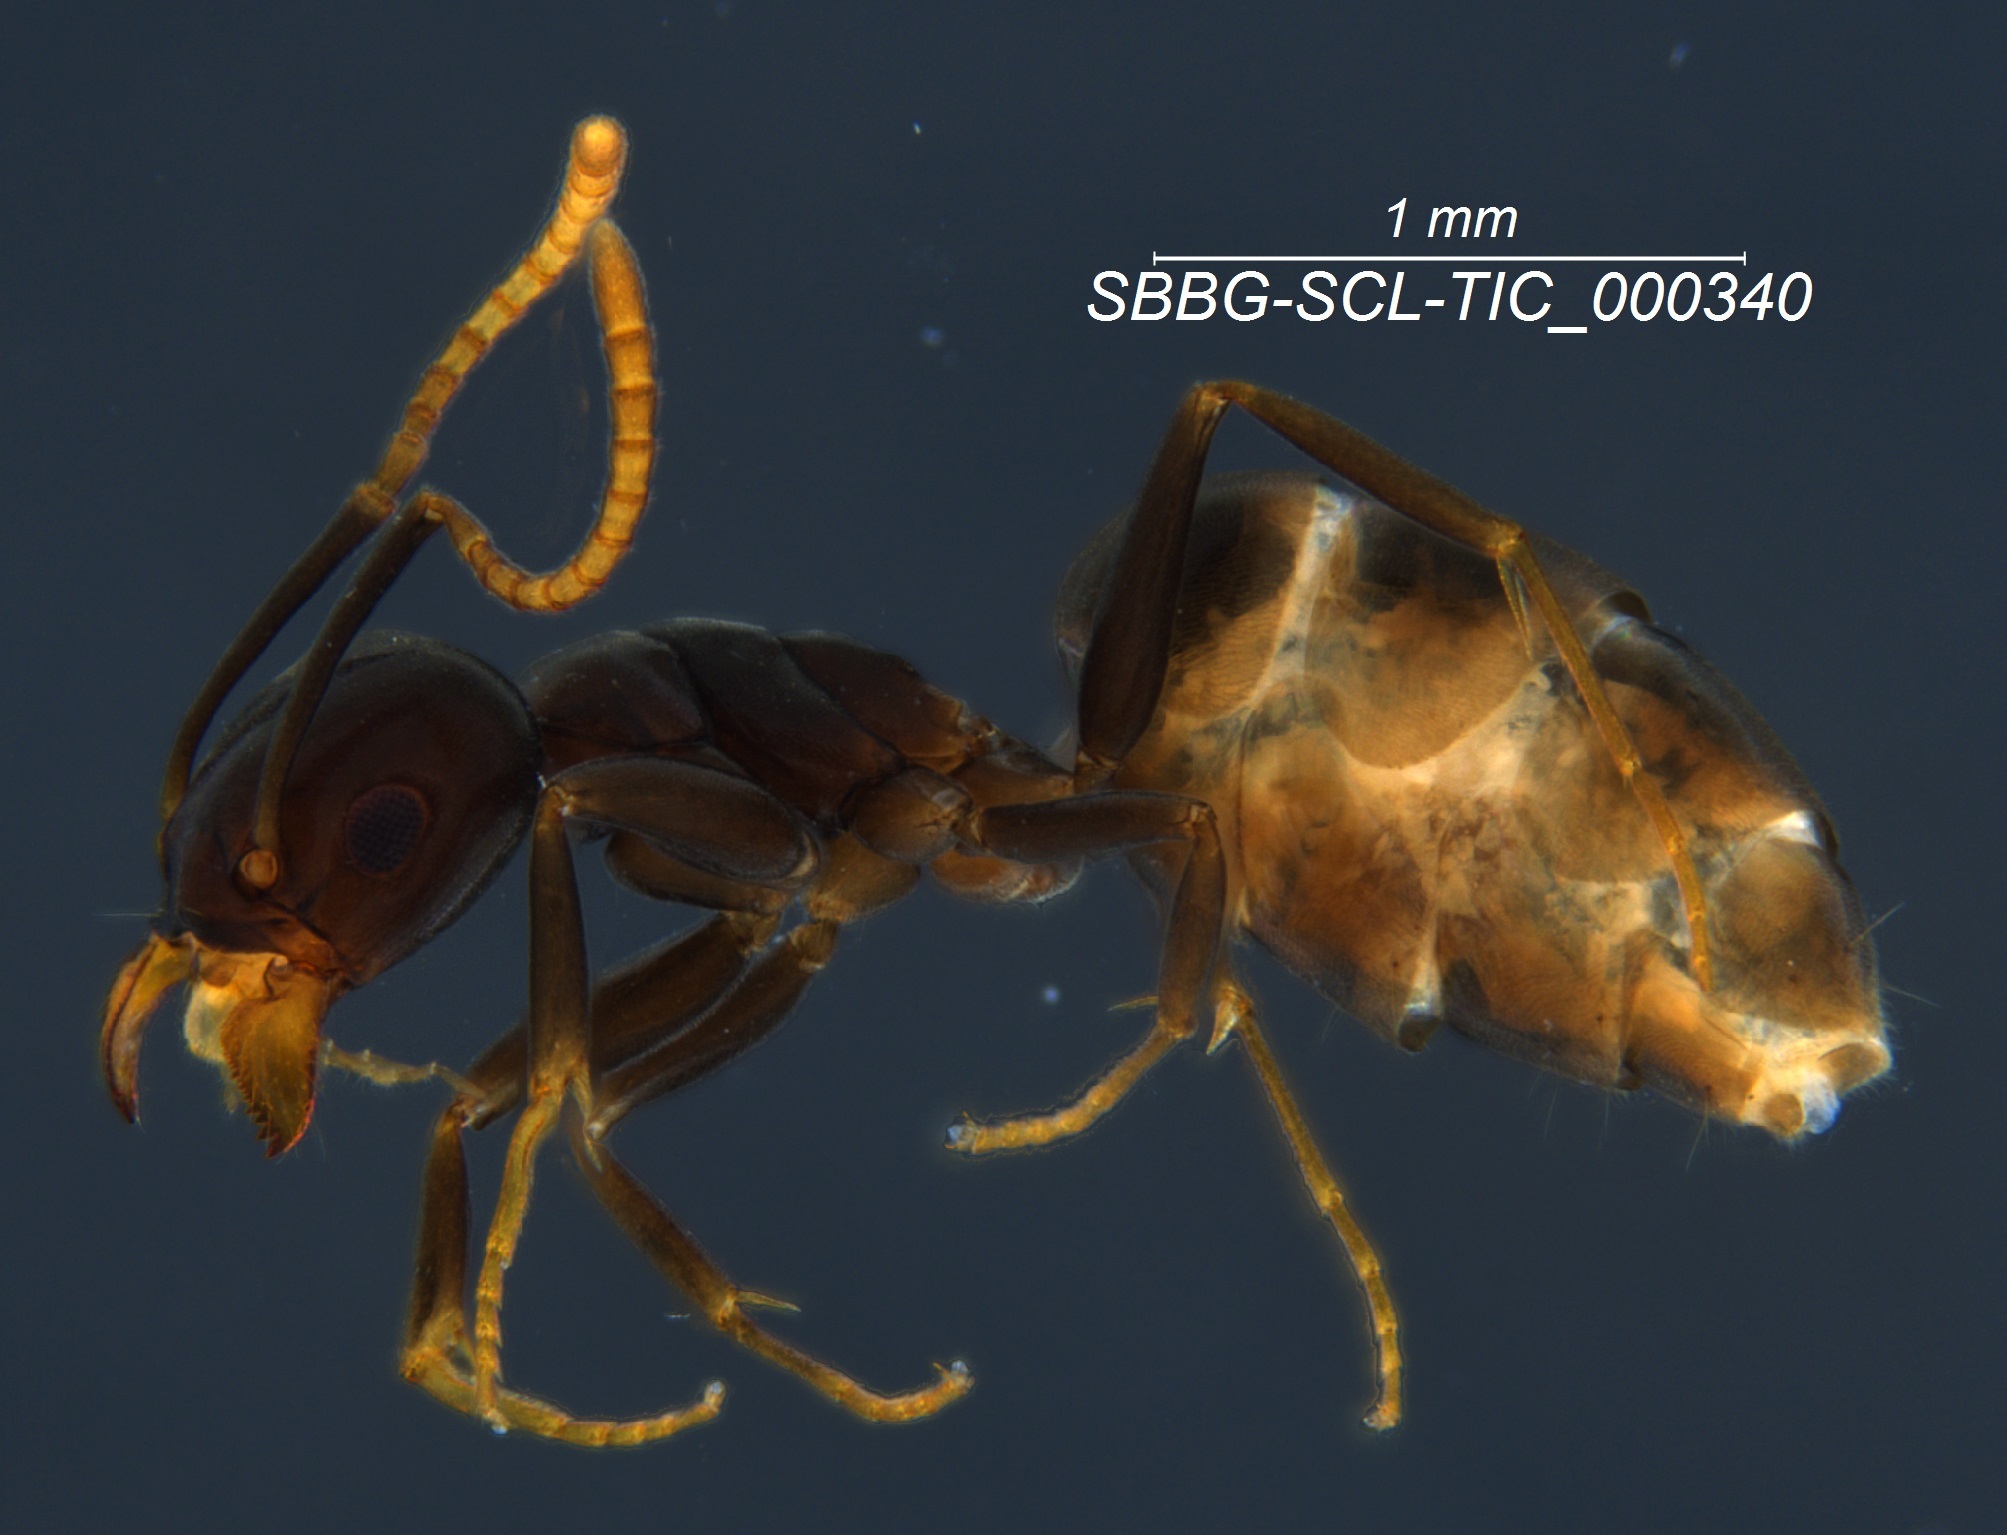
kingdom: Animalia
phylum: Arthropoda
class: Insecta
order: Hymenoptera
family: Formicidae
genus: Tapinoma
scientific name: Tapinoma sessile
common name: Odorous house ant
